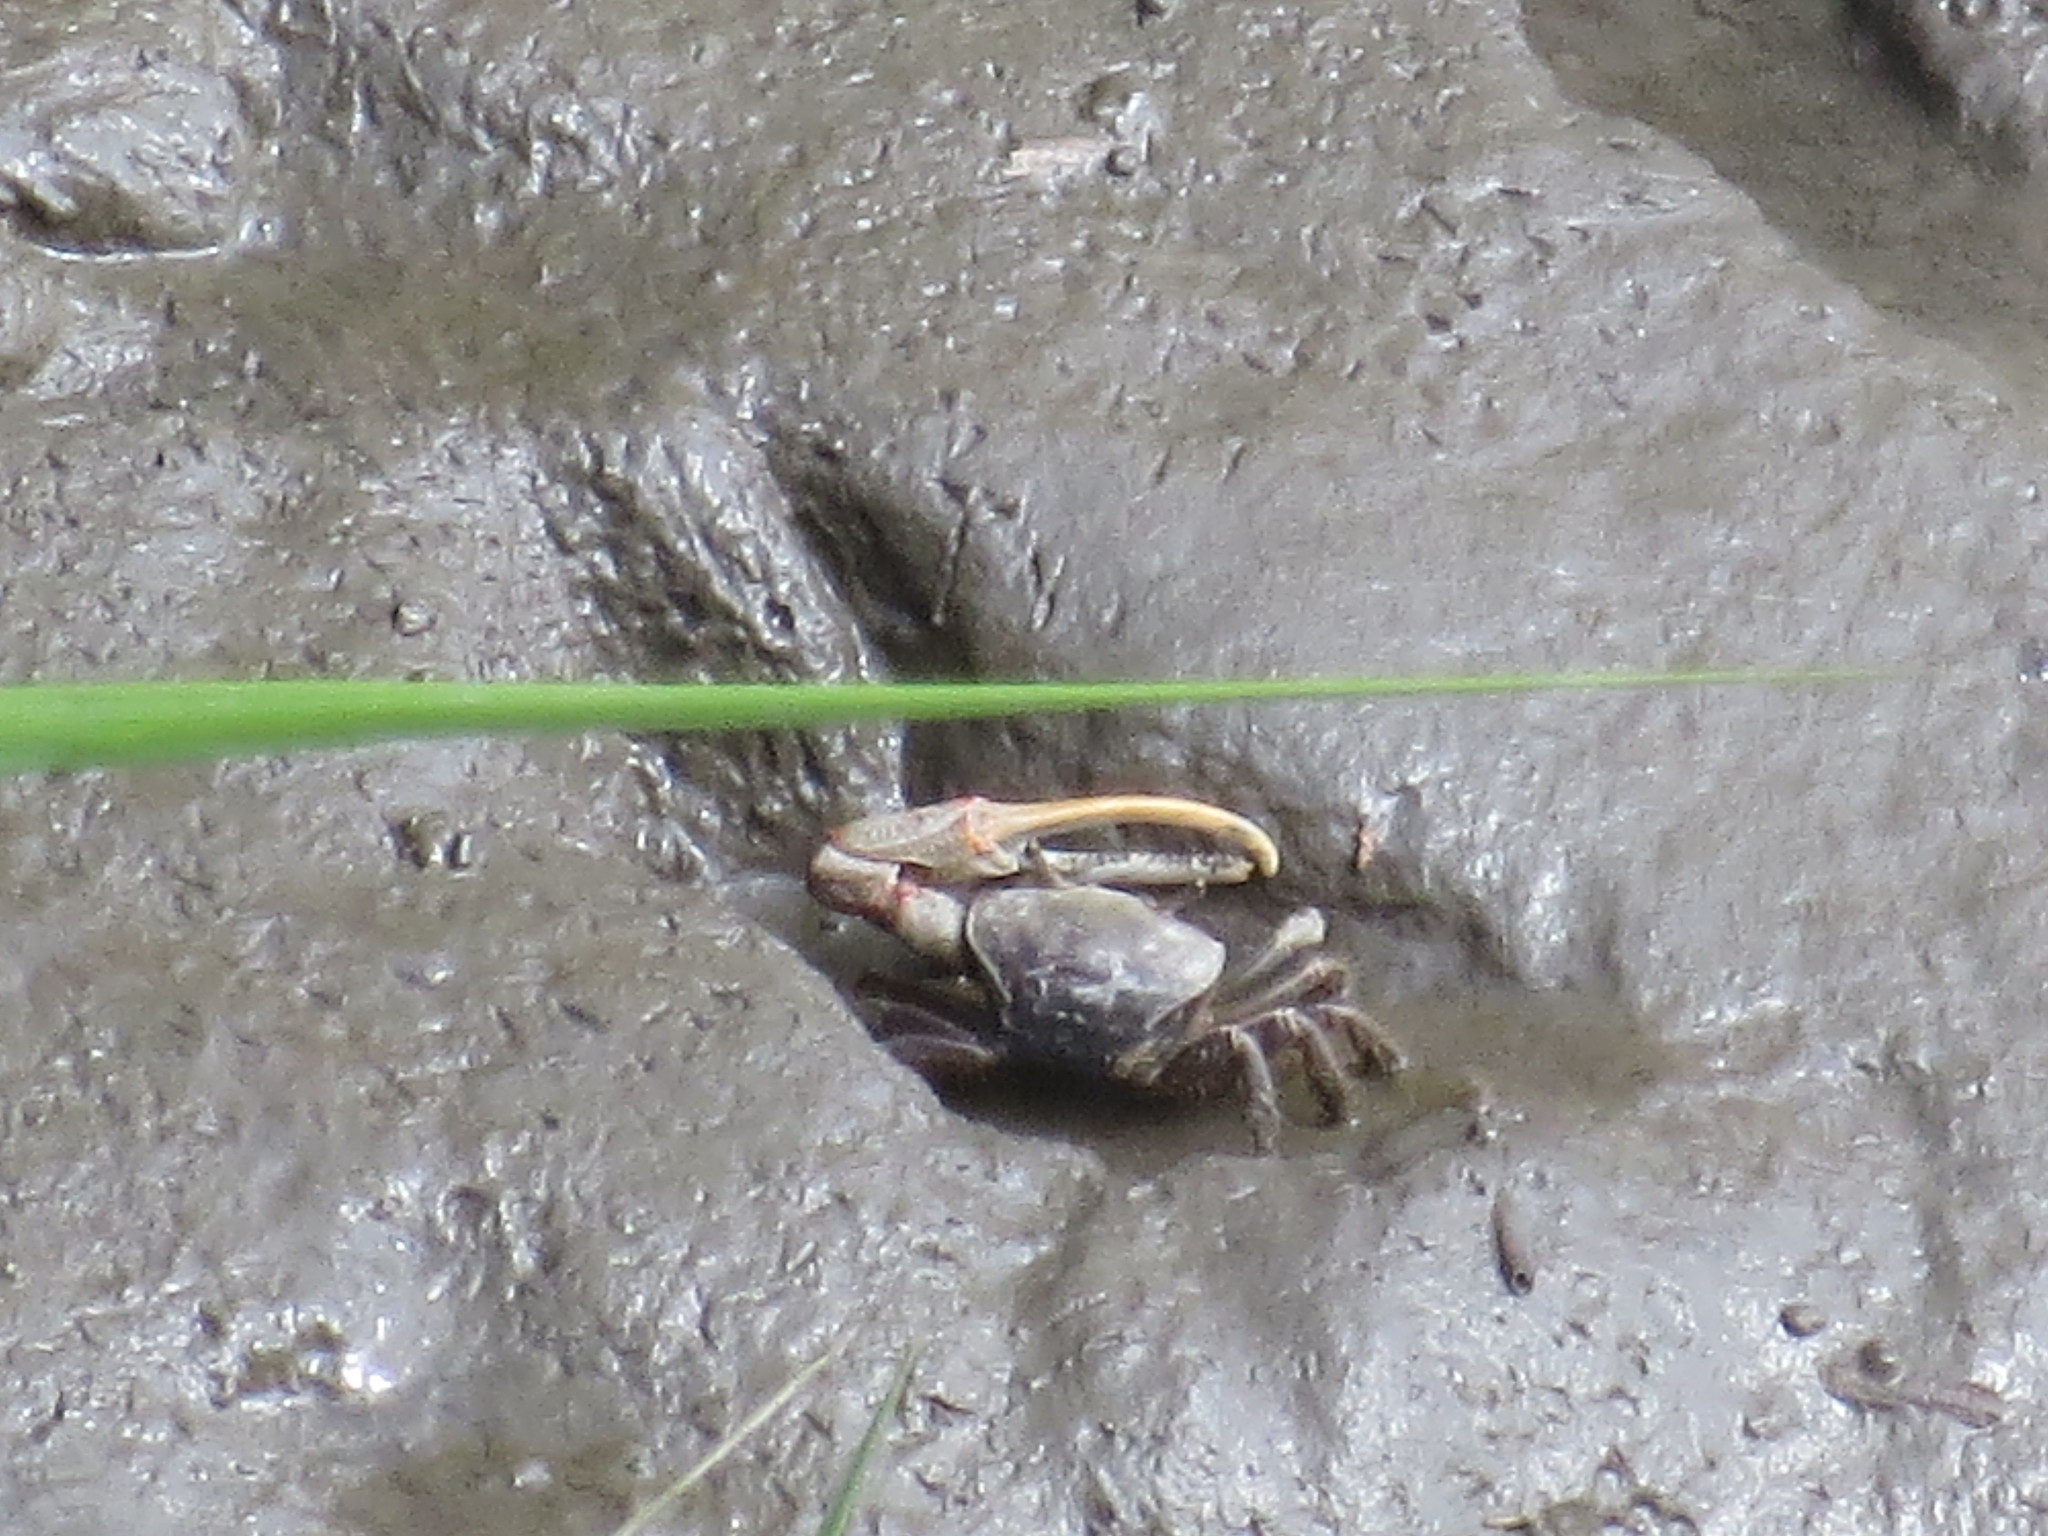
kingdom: Animalia
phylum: Arthropoda
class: Malacostraca
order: Decapoda
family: Ocypodidae
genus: Minuca
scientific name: Minuca minax
